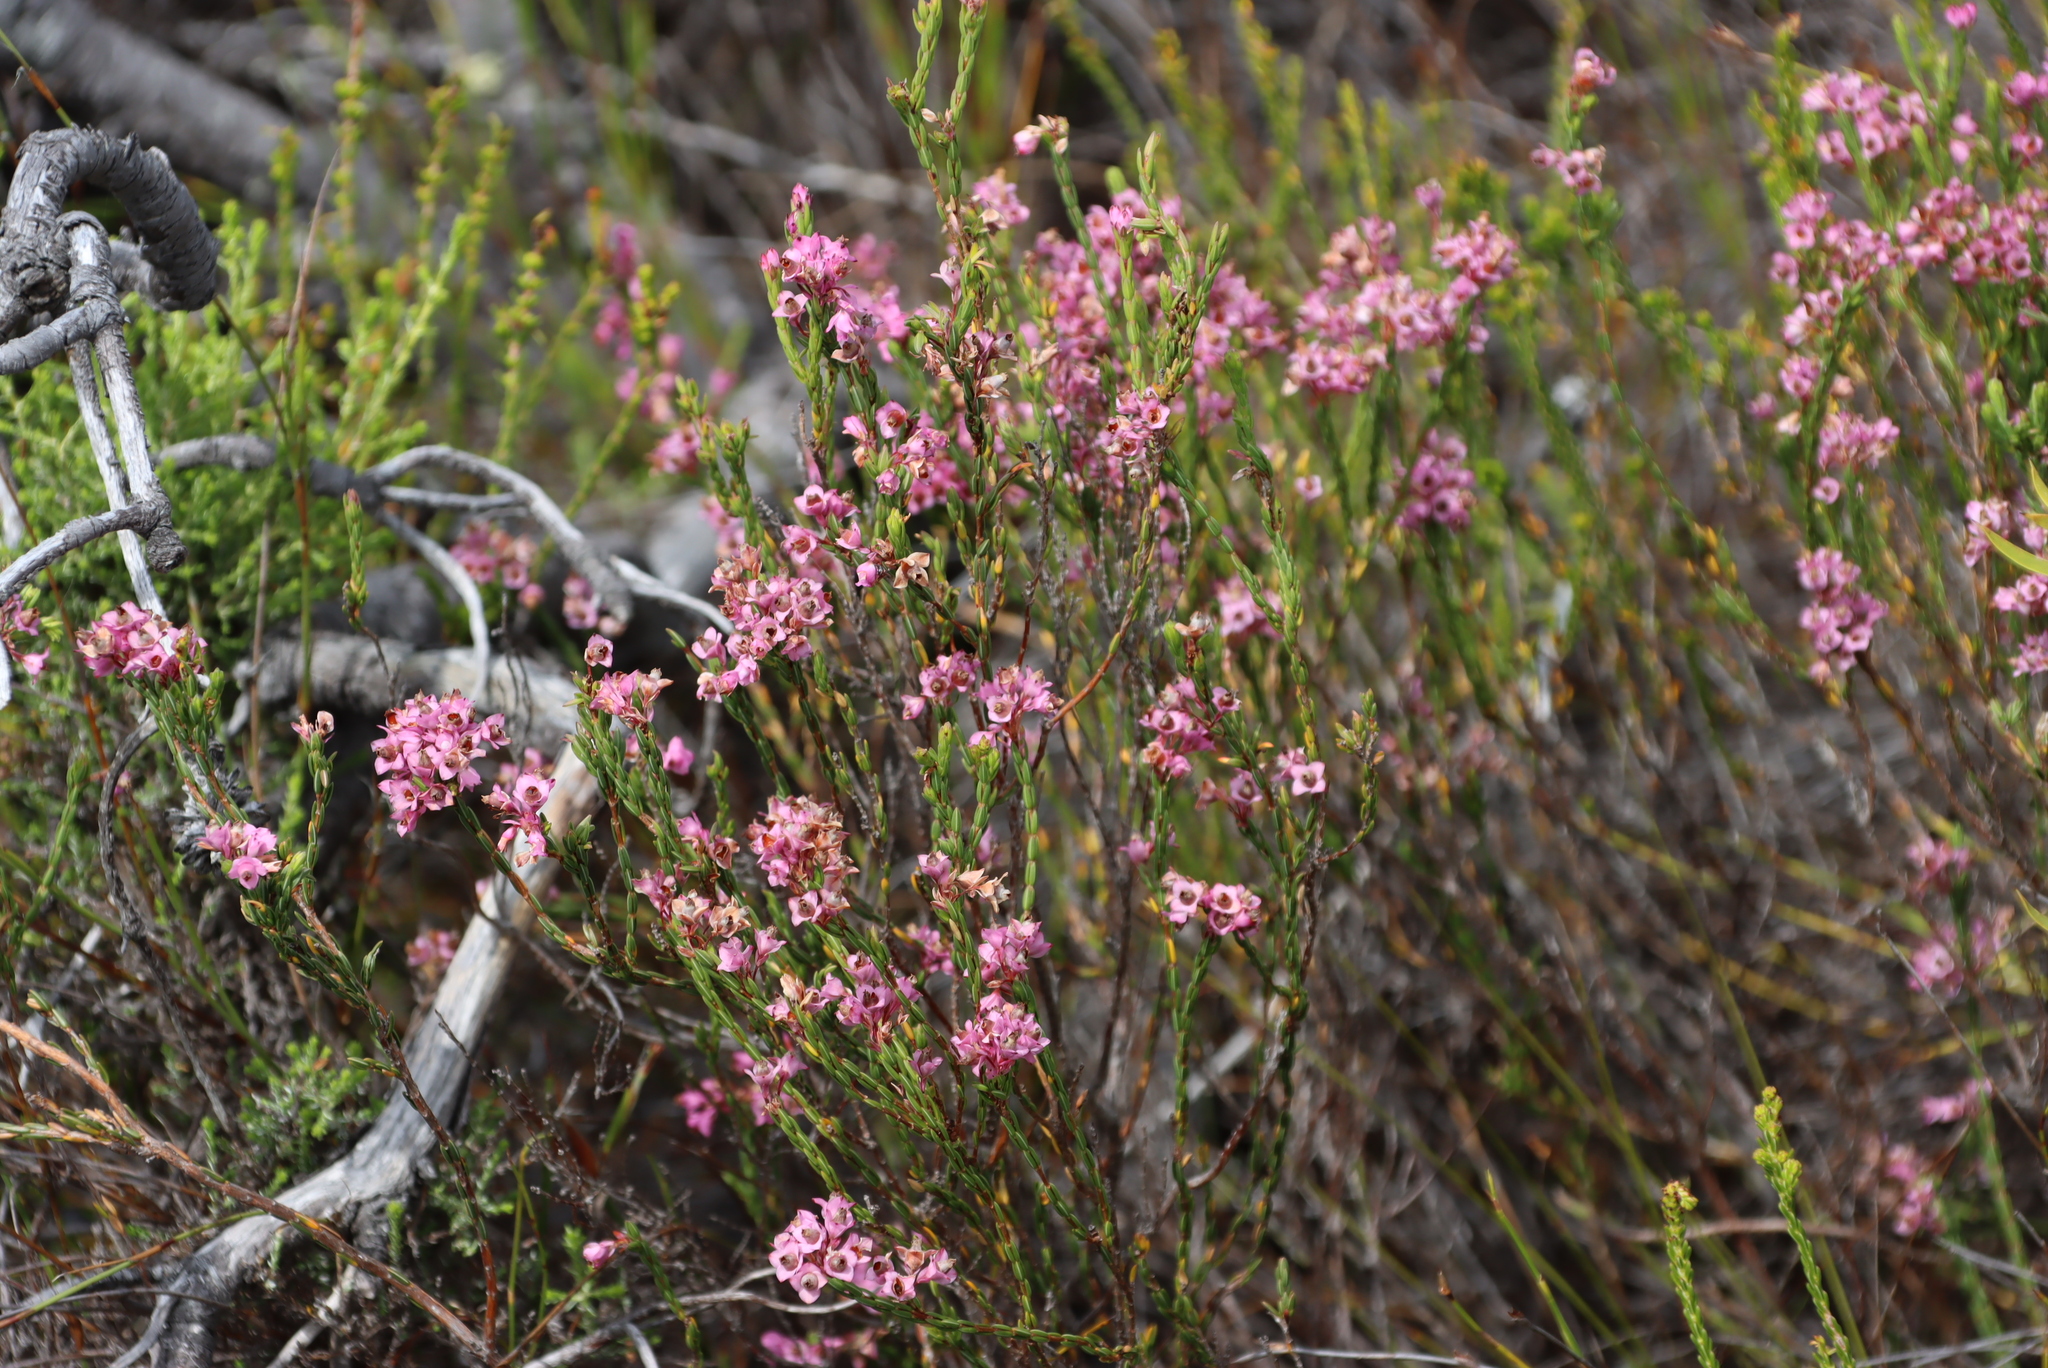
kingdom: Plantae
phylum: Tracheophyta
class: Magnoliopsida
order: Ericales
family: Ericaceae
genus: Erica
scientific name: Erica corifolia
